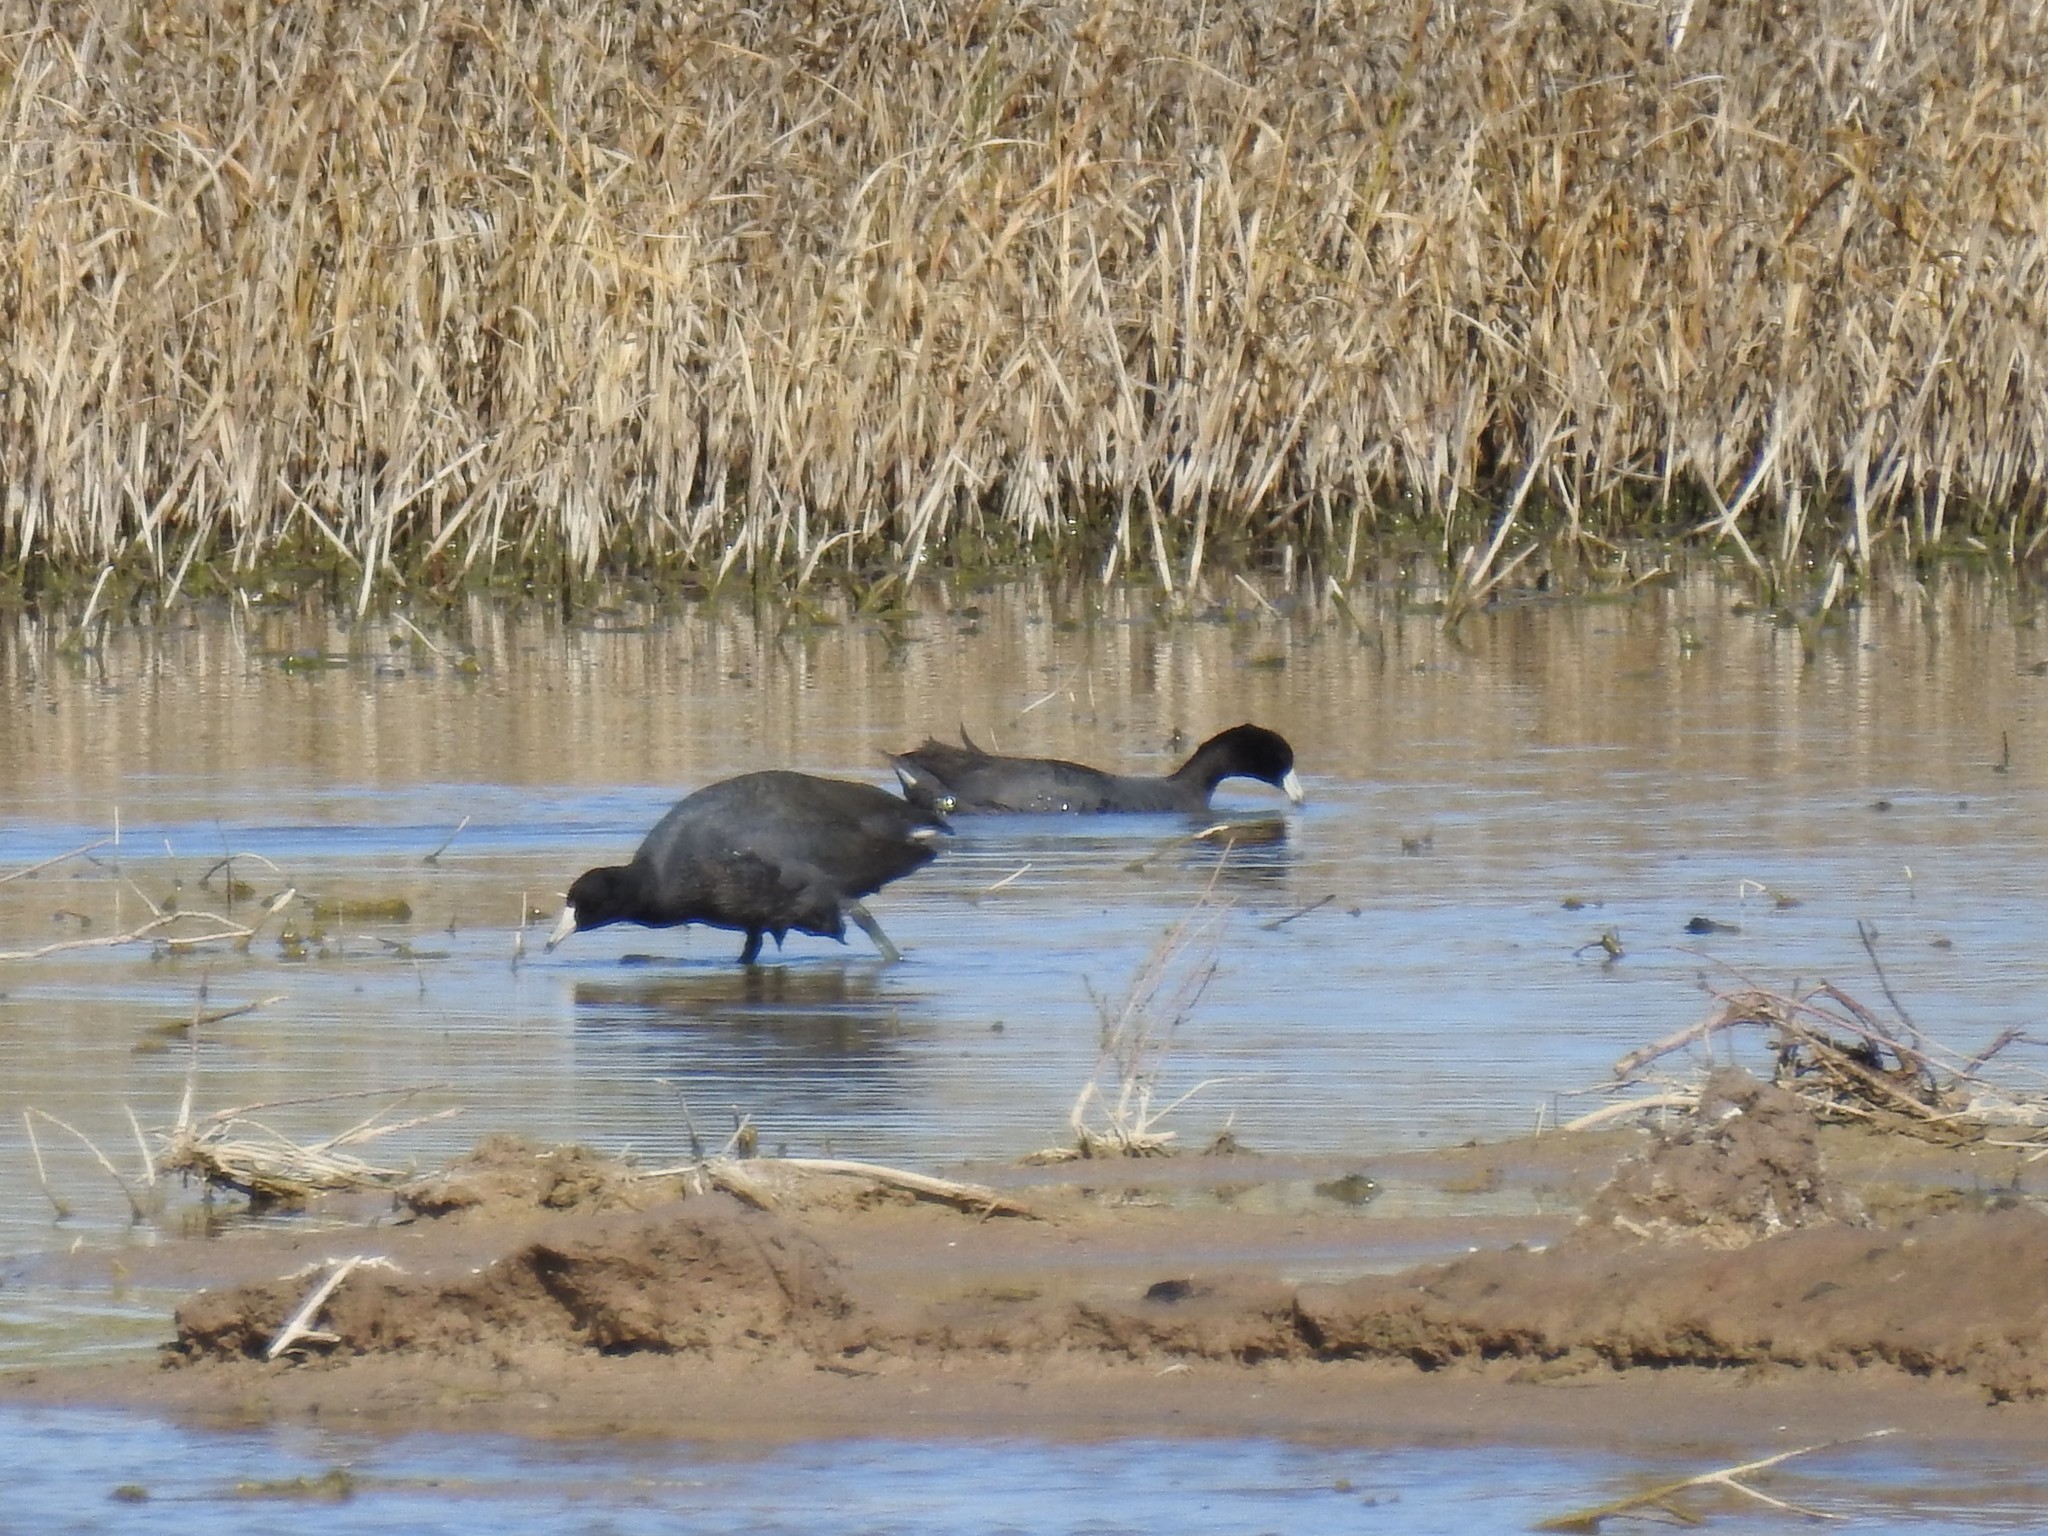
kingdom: Animalia
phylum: Chordata
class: Aves
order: Gruiformes
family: Rallidae
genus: Fulica
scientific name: Fulica americana
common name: American coot
